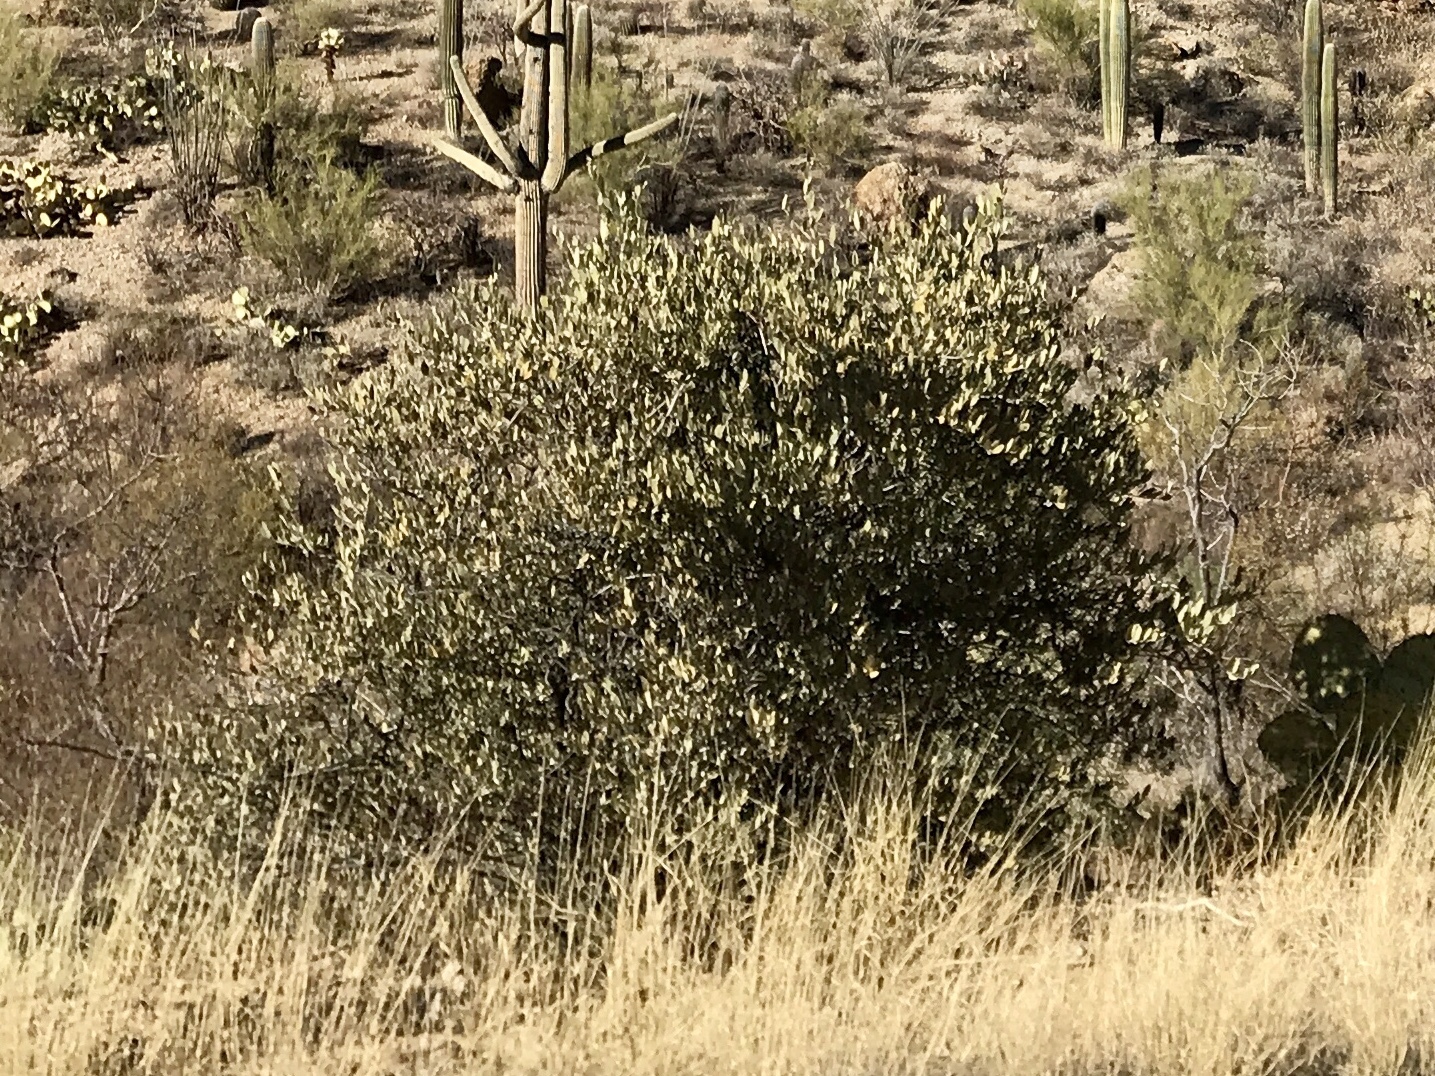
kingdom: Plantae
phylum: Tracheophyta
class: Magnoliopsida
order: Caryophyllales
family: Simmondsiaceae
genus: Simmondsia
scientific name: Simmondsia chinensis
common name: Jojoba
